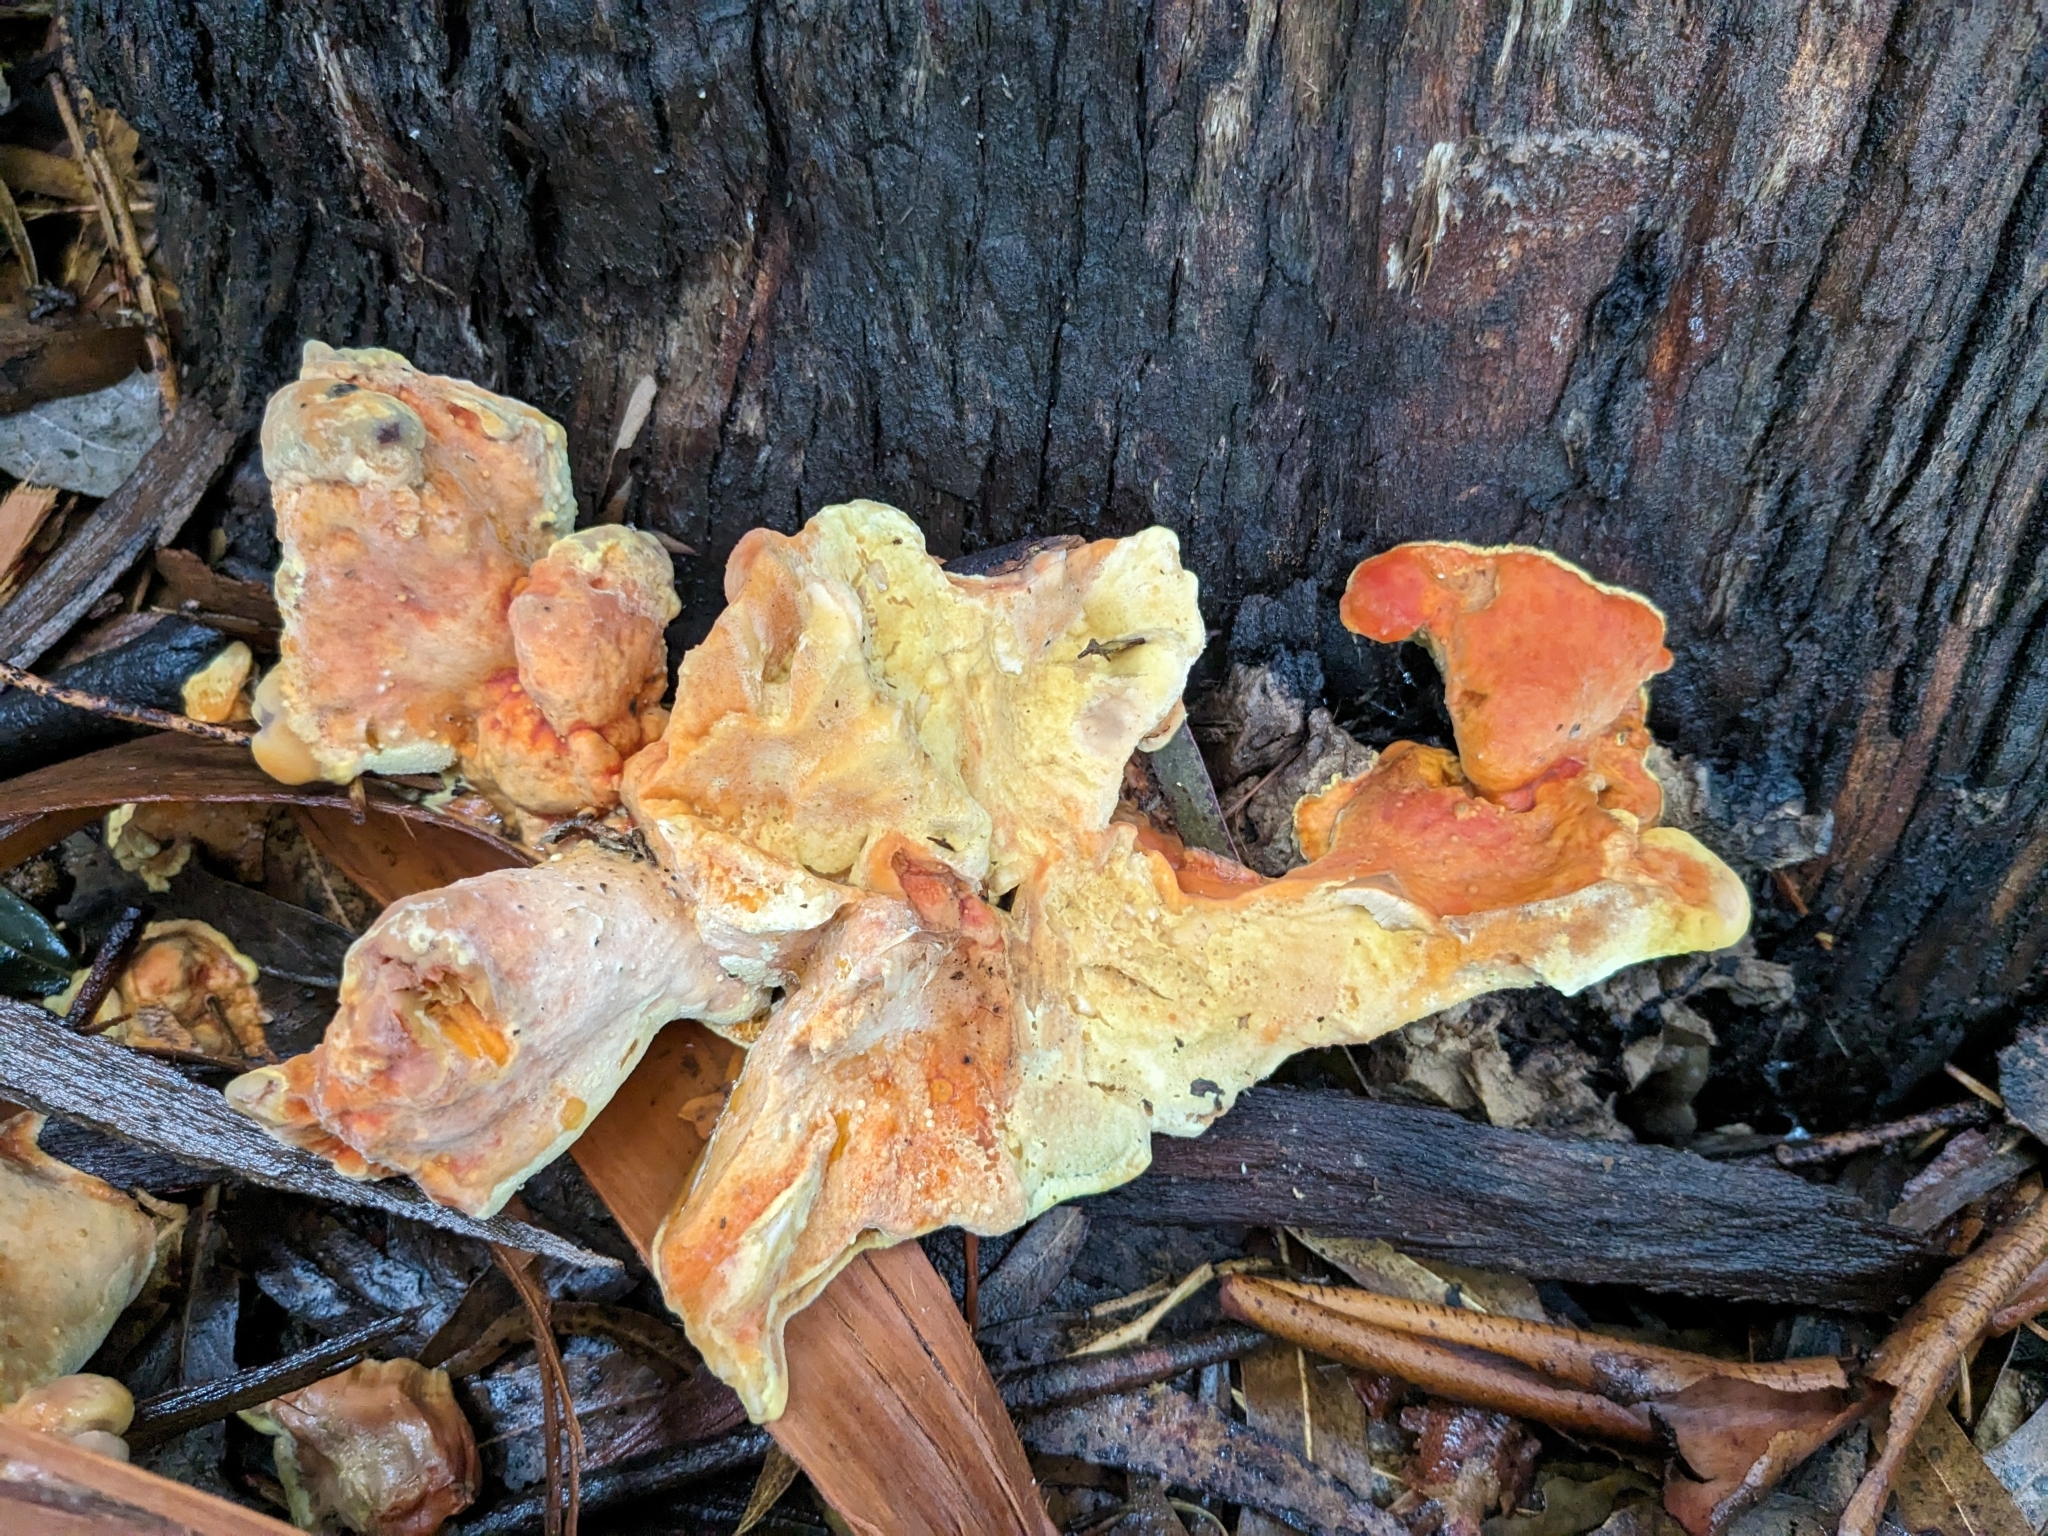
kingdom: Fungi
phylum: Basidiomycota
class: Agaricomycetes
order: Polyporales
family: Laetiporaceae
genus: Laetiporus
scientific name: Laetiporus gilbertsonii
